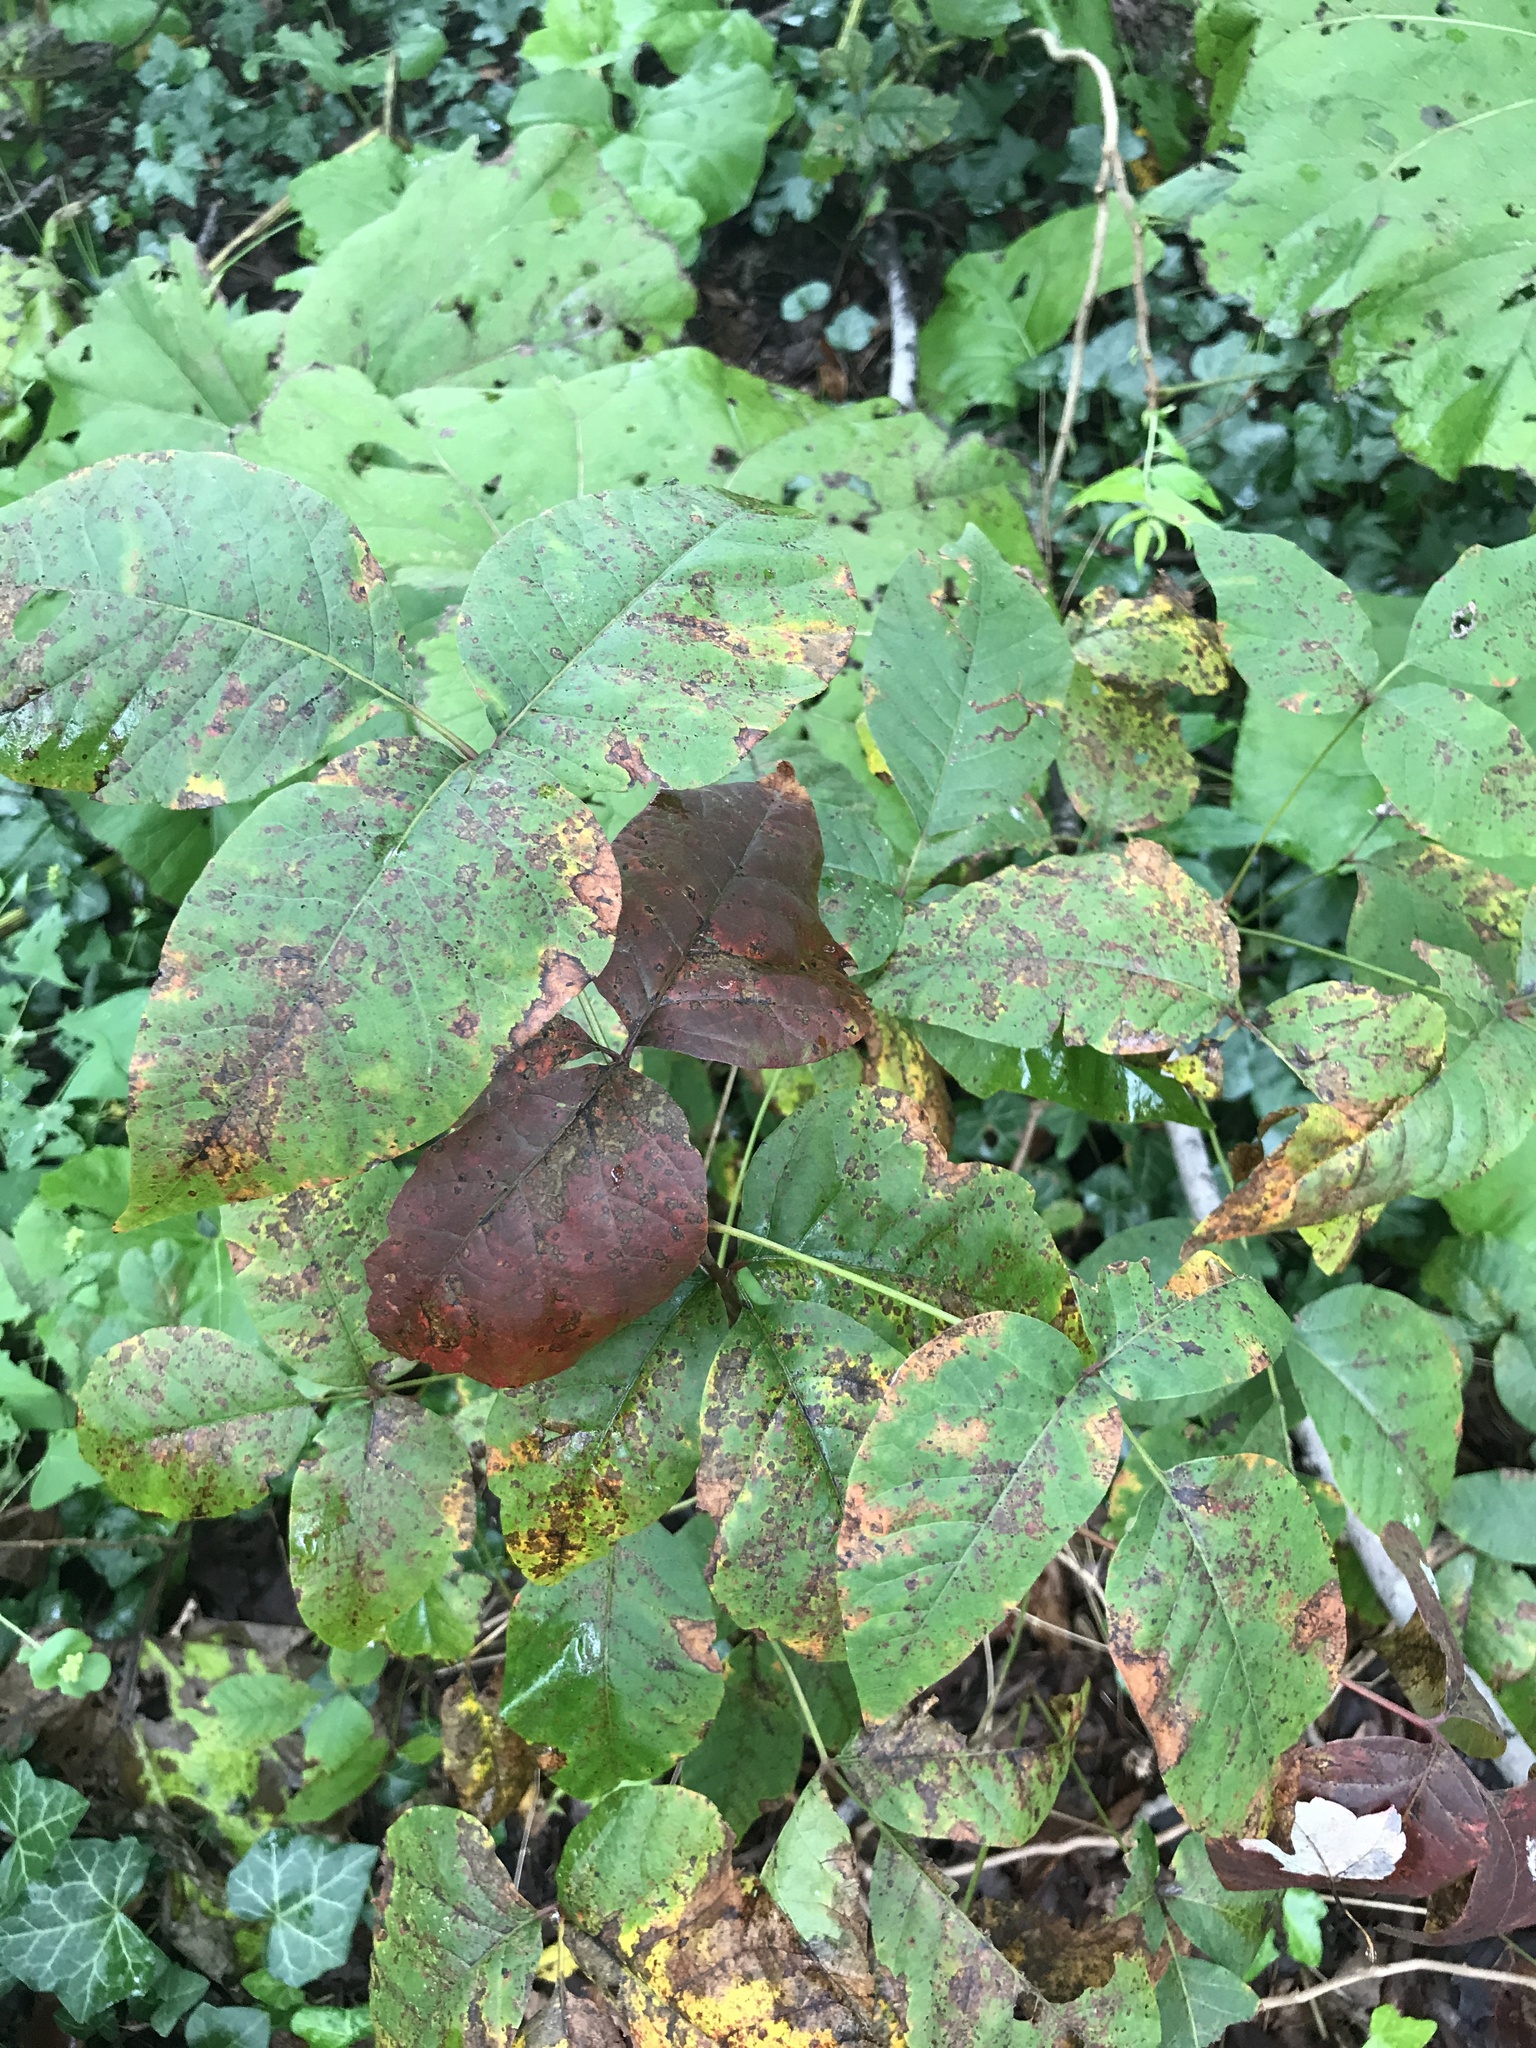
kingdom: Plantae
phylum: Tracheophyta
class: Magnoliopsida
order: Sapindales
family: Anacardiaceae
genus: Toxicodendron
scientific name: Toxicodendron radicans
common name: Poison ivy
